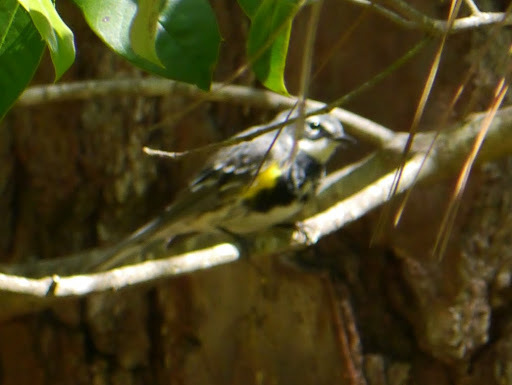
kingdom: Animalia
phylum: Chordata
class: Aves
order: Passeriformes
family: Parulidae
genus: Setophaga
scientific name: Setophaga coronata
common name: Myrtle warbler
